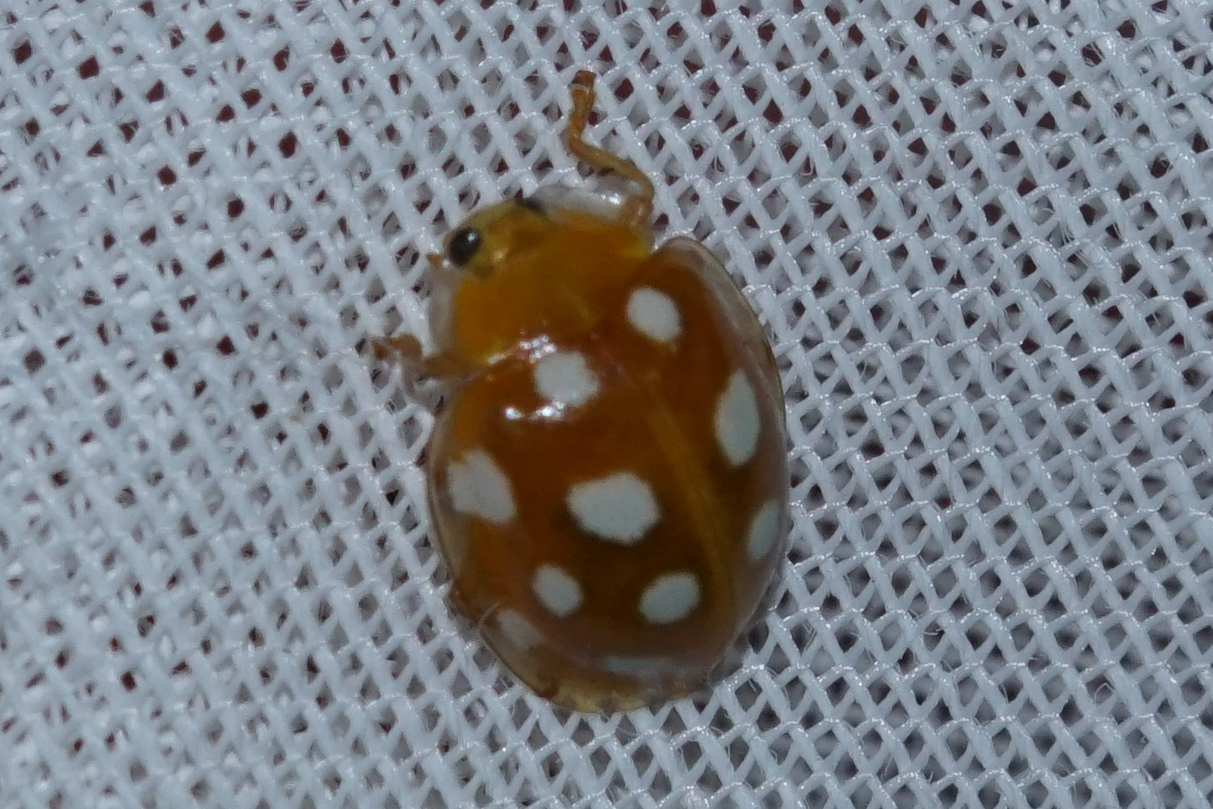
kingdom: Animalia
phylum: Arthropoda
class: Insecta
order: Coleoptera
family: Coccinellidae
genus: Halyzia
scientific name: Halyzia sedecimguttata
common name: Orange ladybird
